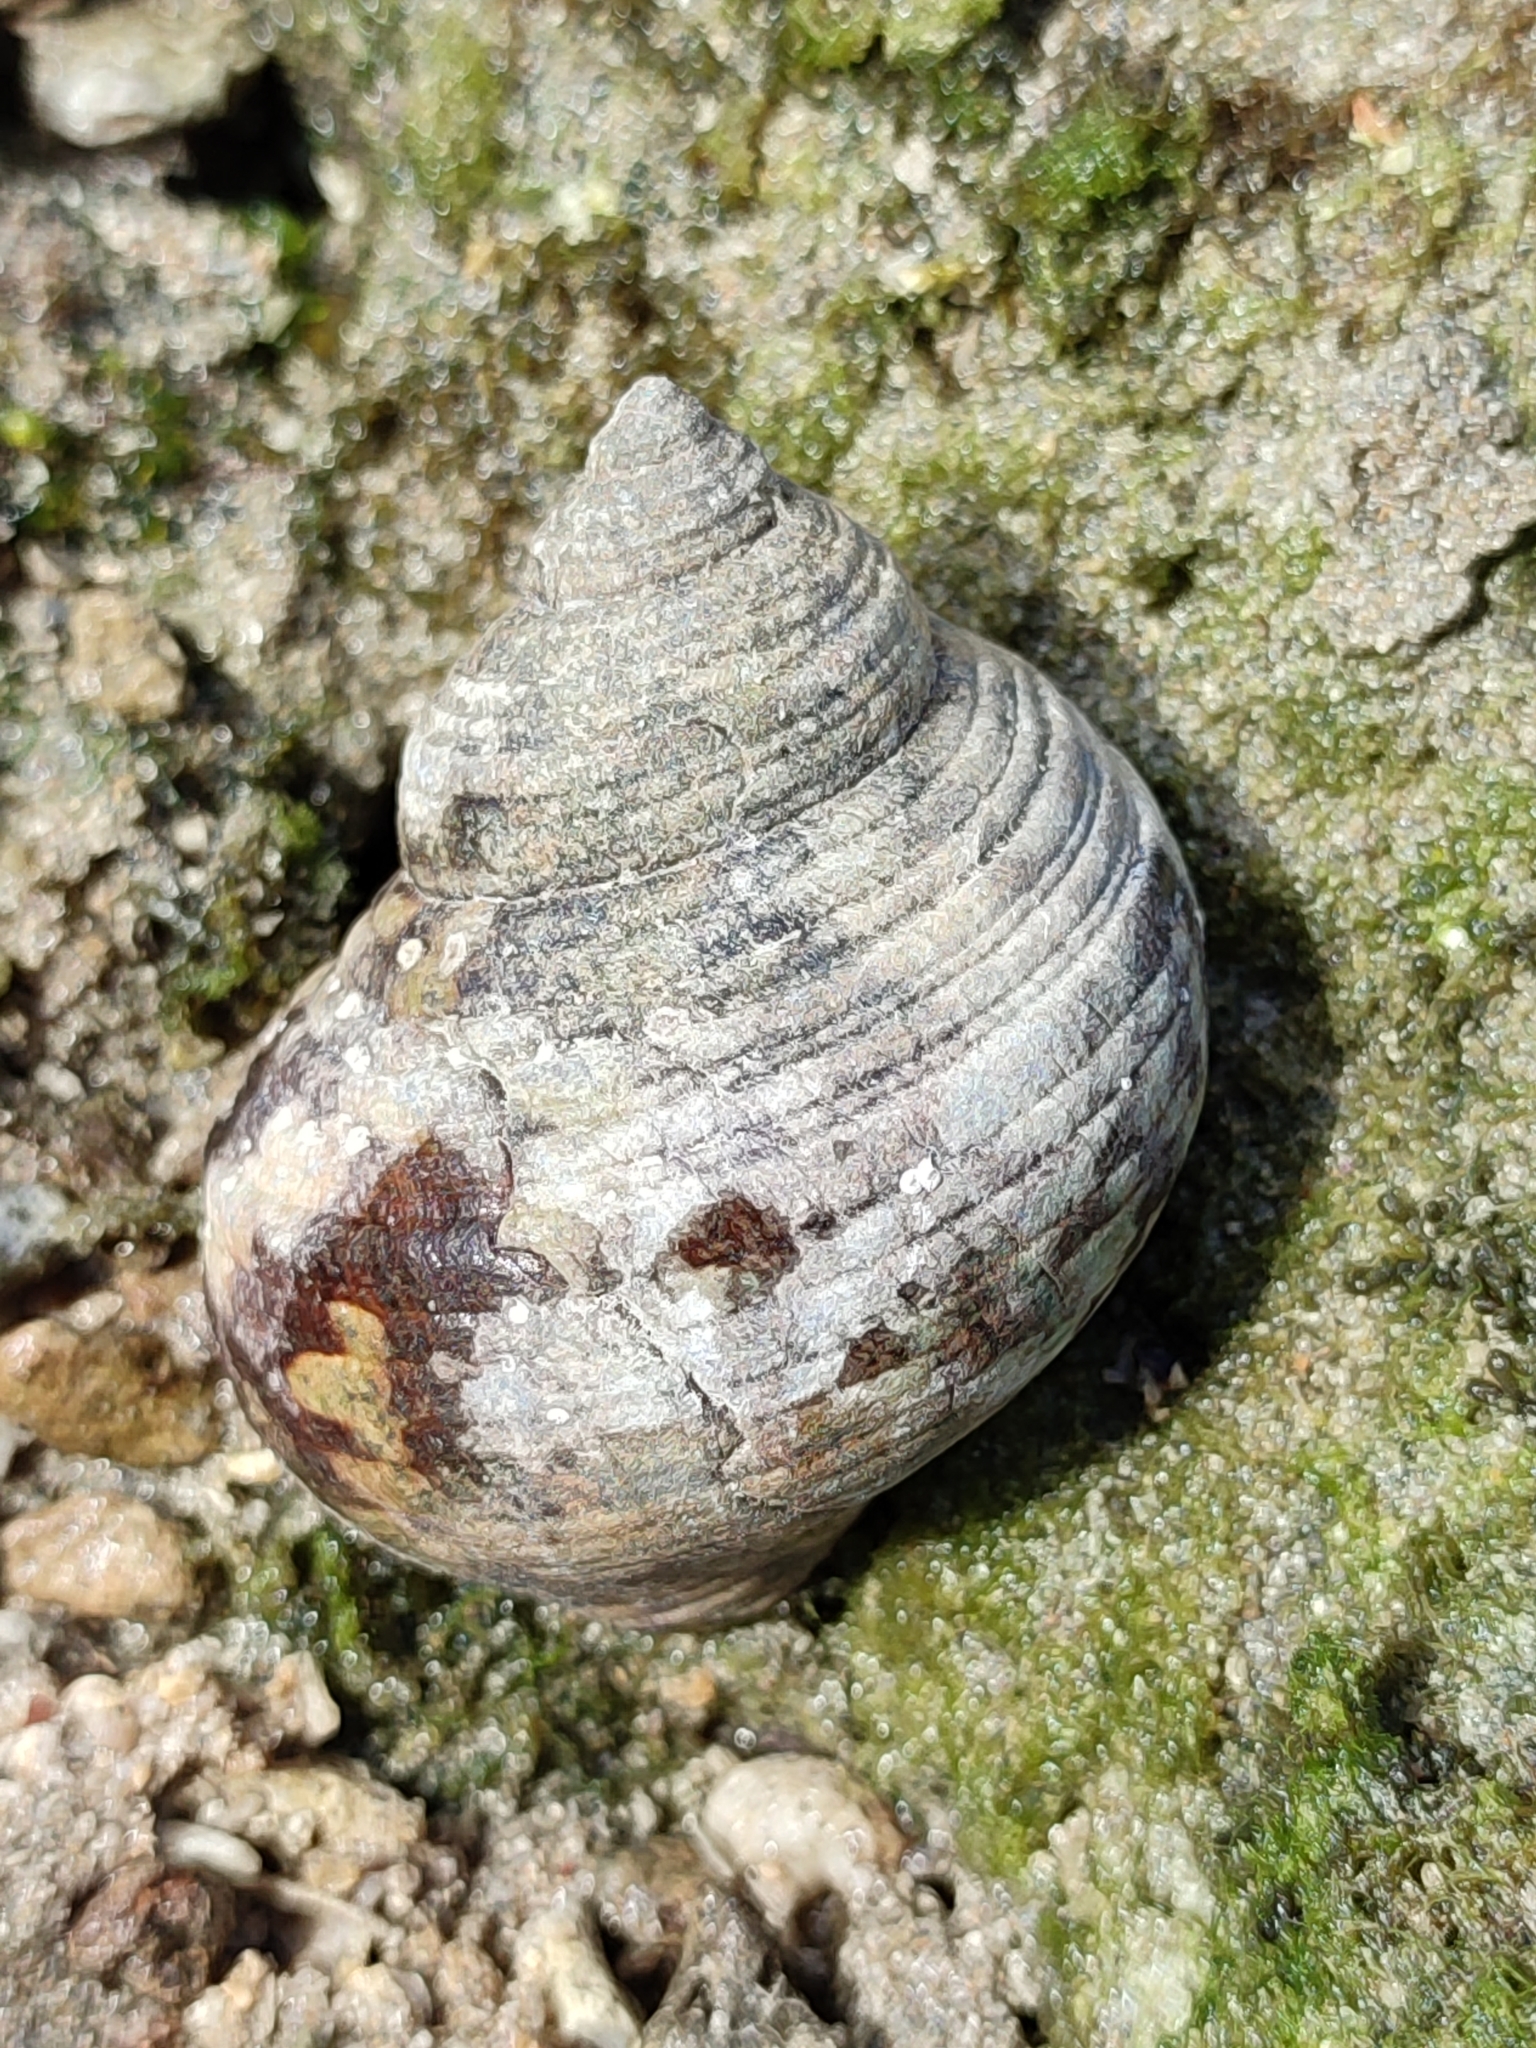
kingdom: Animalia
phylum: Mollusca
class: Gastropoda
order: Trochida
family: Turbinidae
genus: Turbo
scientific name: Turbo sparverius
